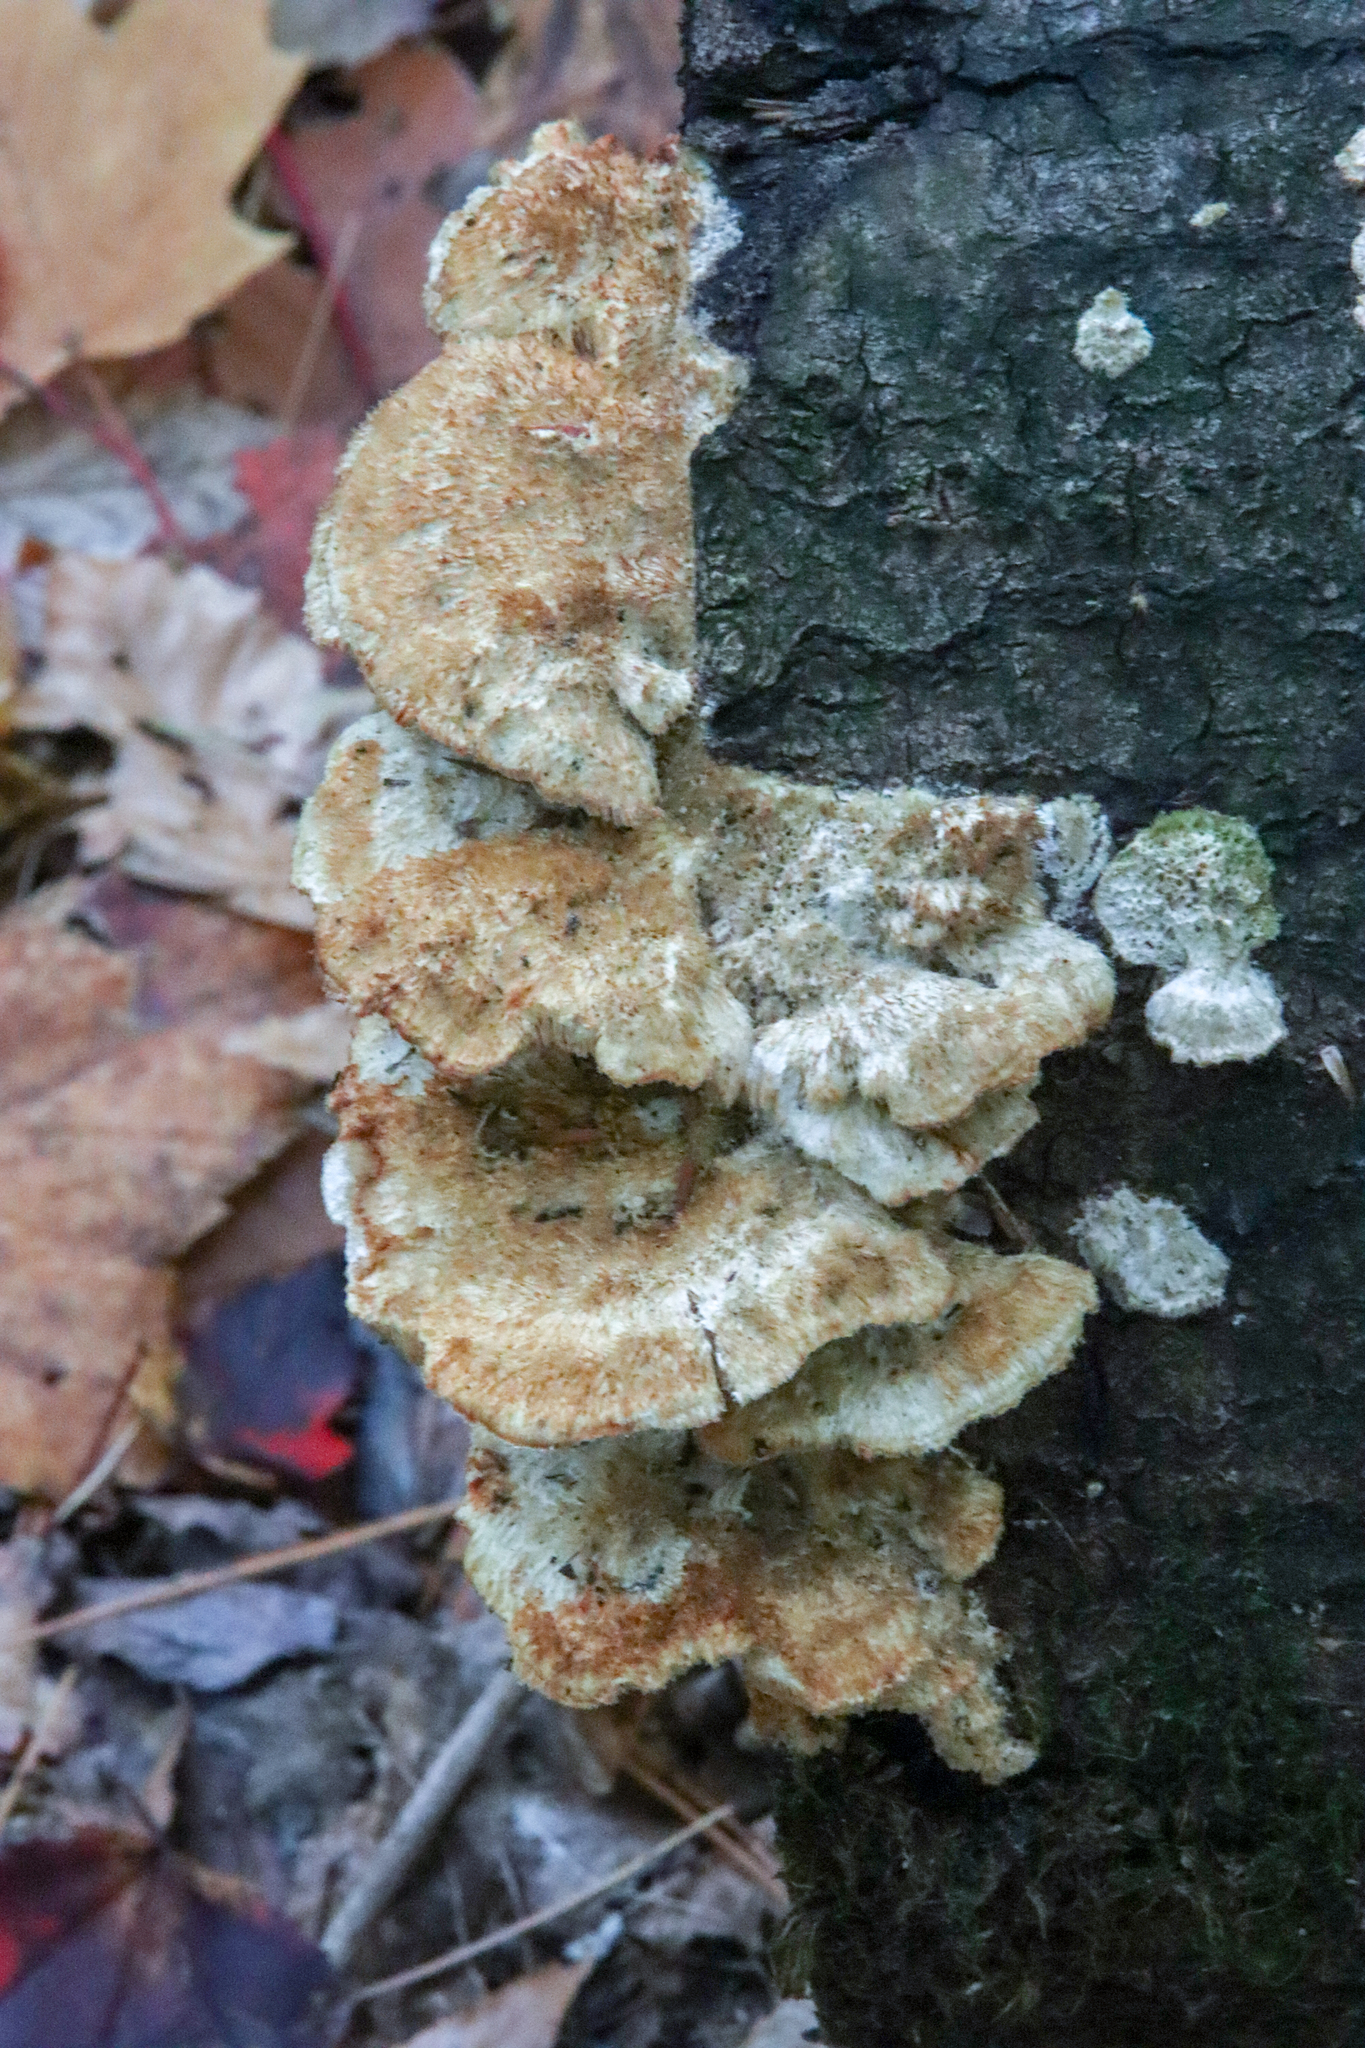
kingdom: Fungi
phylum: Basidiomycota
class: Agaricomycetes
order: Polyporales
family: Polyporaceae
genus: Trametes
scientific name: Trametes trogii
